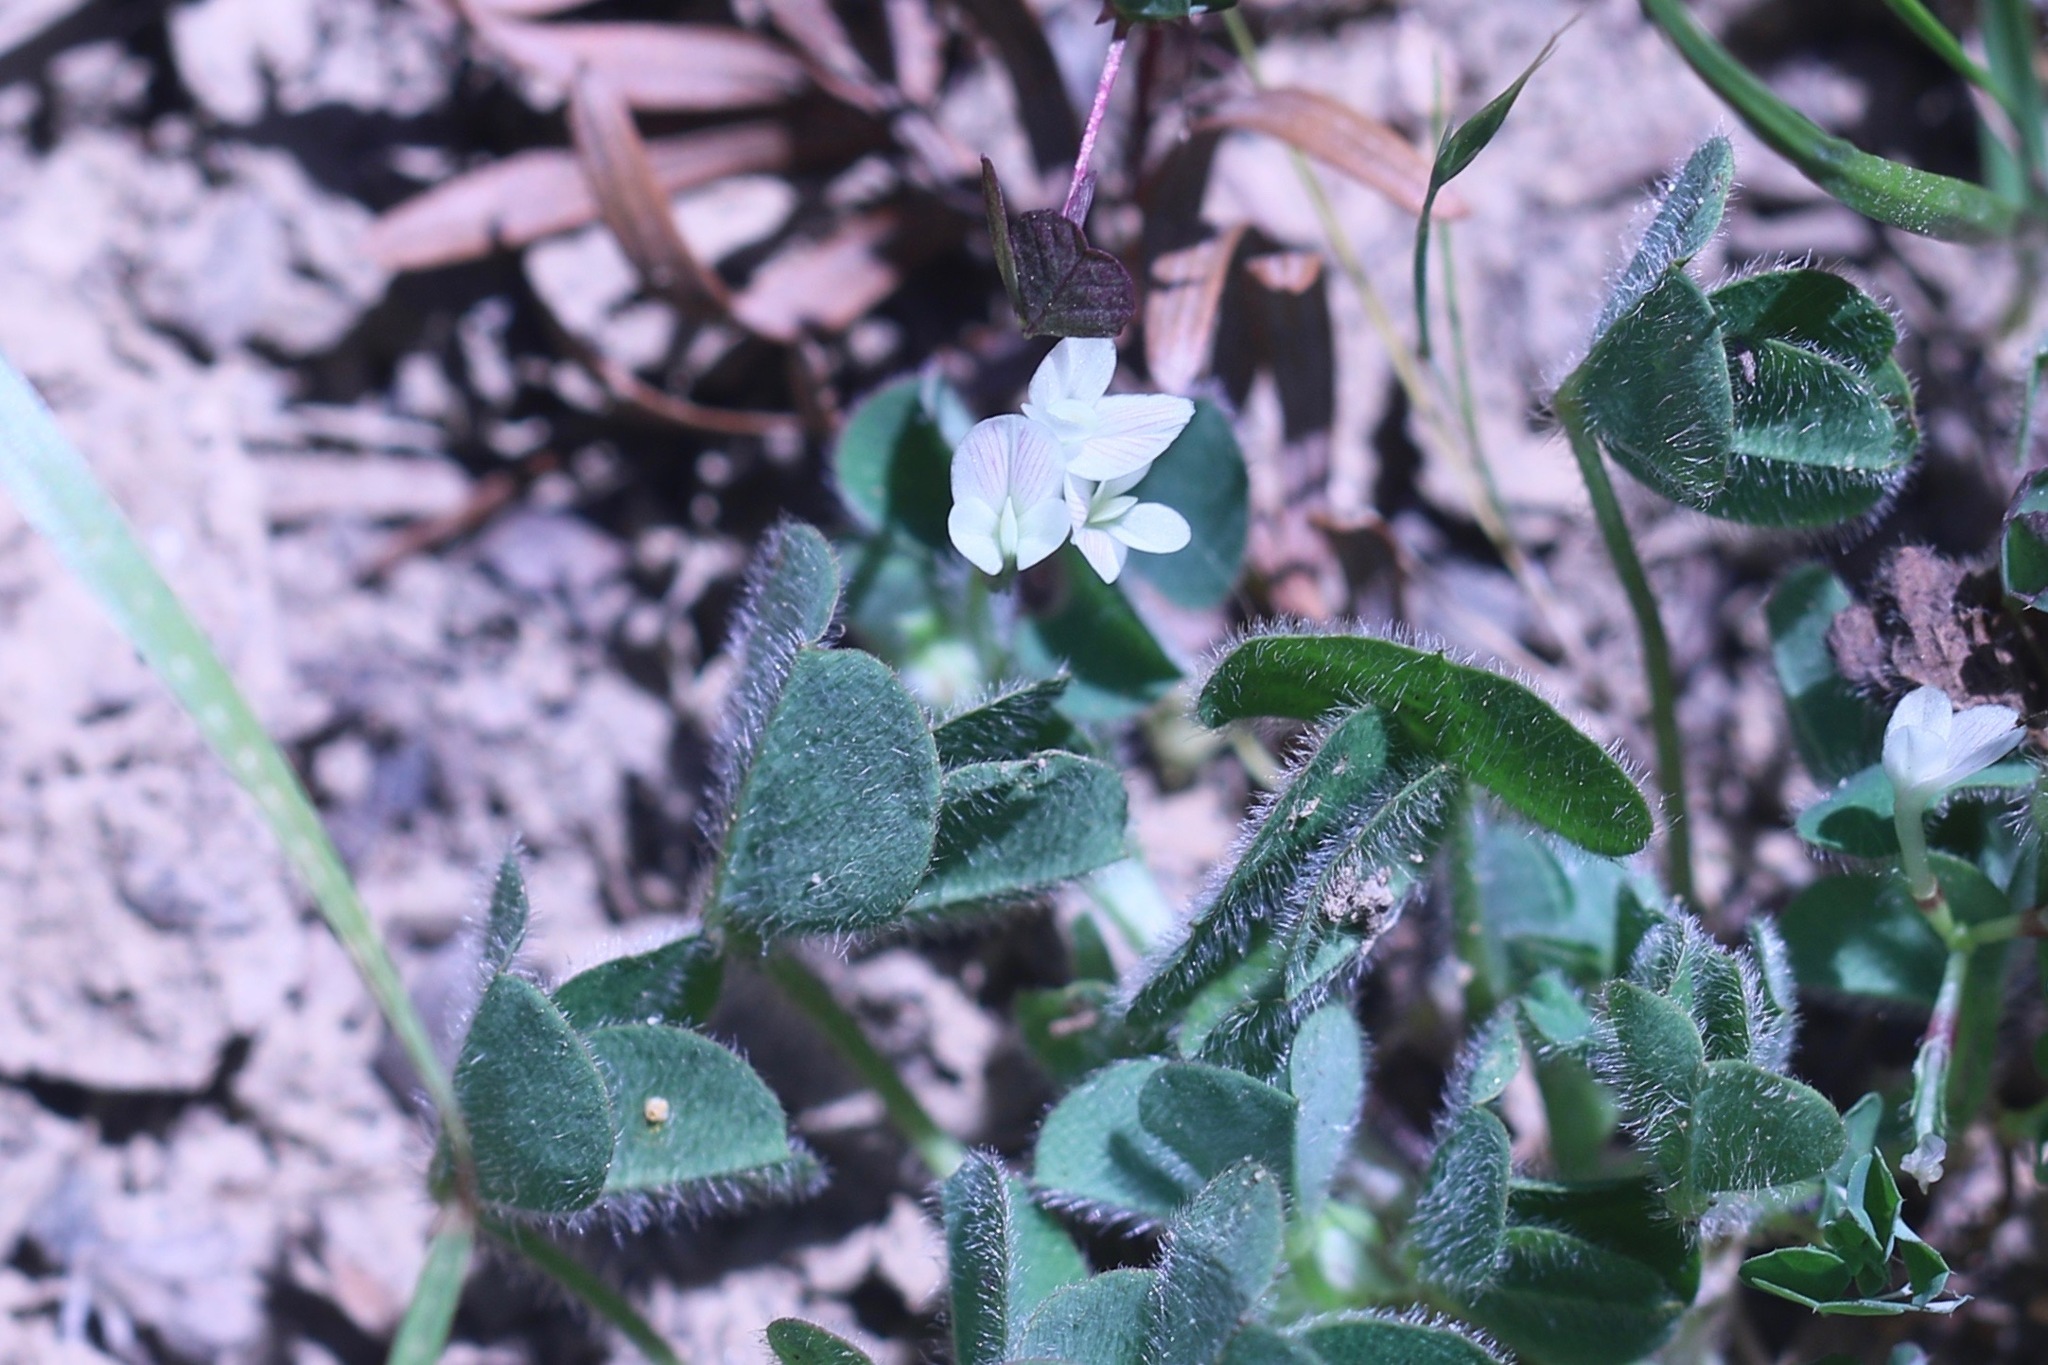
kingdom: Plantae
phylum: Tracheophyta
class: Magnoliopsida
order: Fabales
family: Fabaceae
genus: Trifolium
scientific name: Trifolium subterraneum
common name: Subterranean clover
